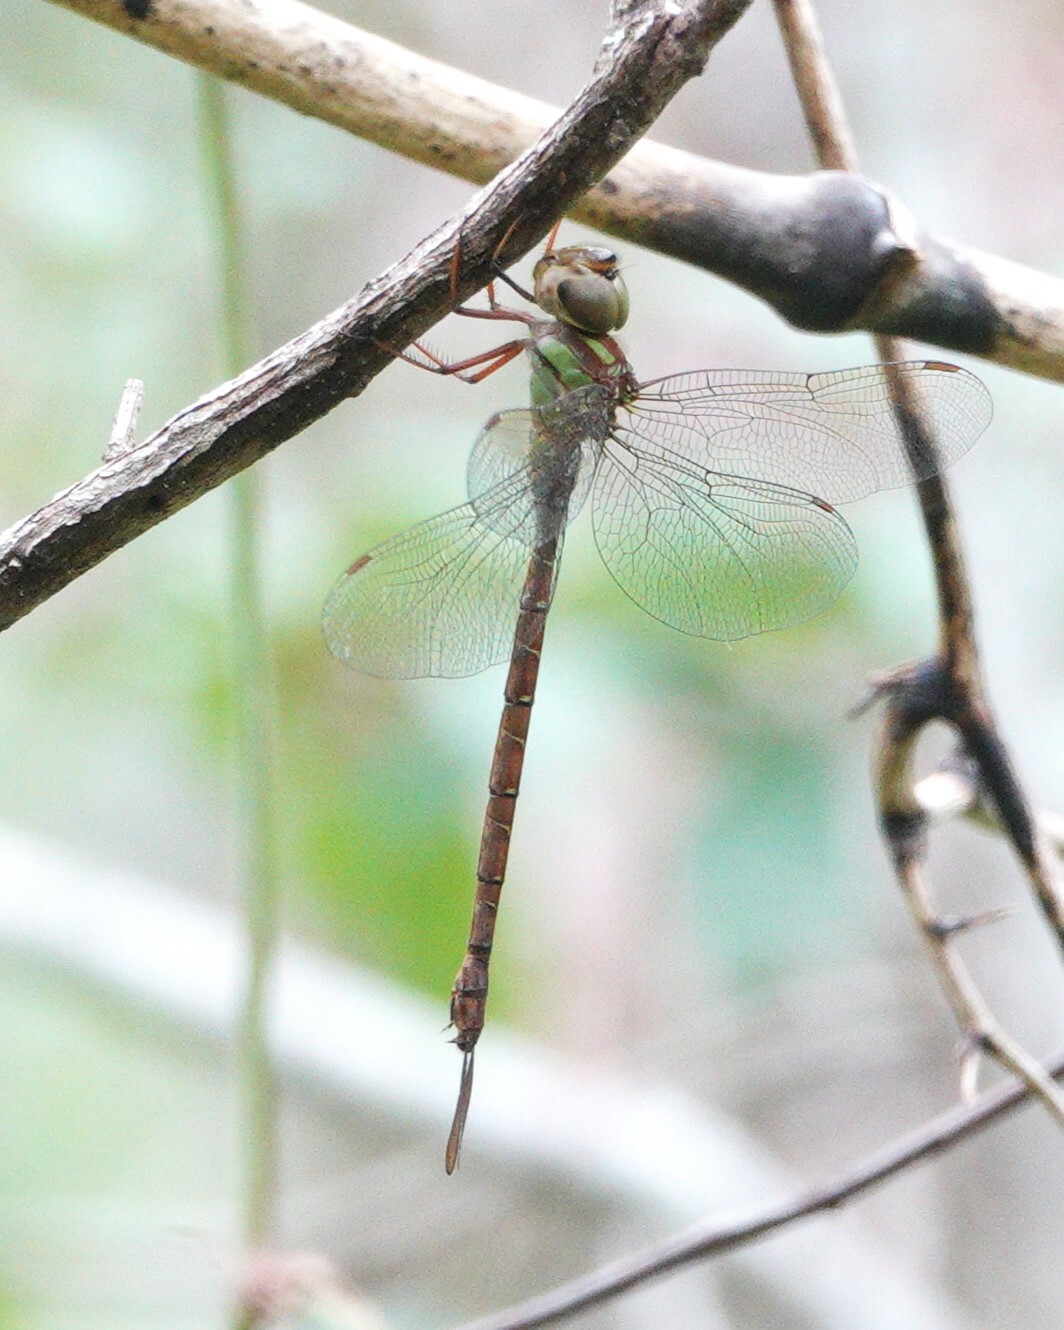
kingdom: Animalia
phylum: Arthropoda
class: Insecta
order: Odonata
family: Aeshnidae
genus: Triacanthagyna
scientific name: Triacanthagyna trifida
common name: Phantom darner
